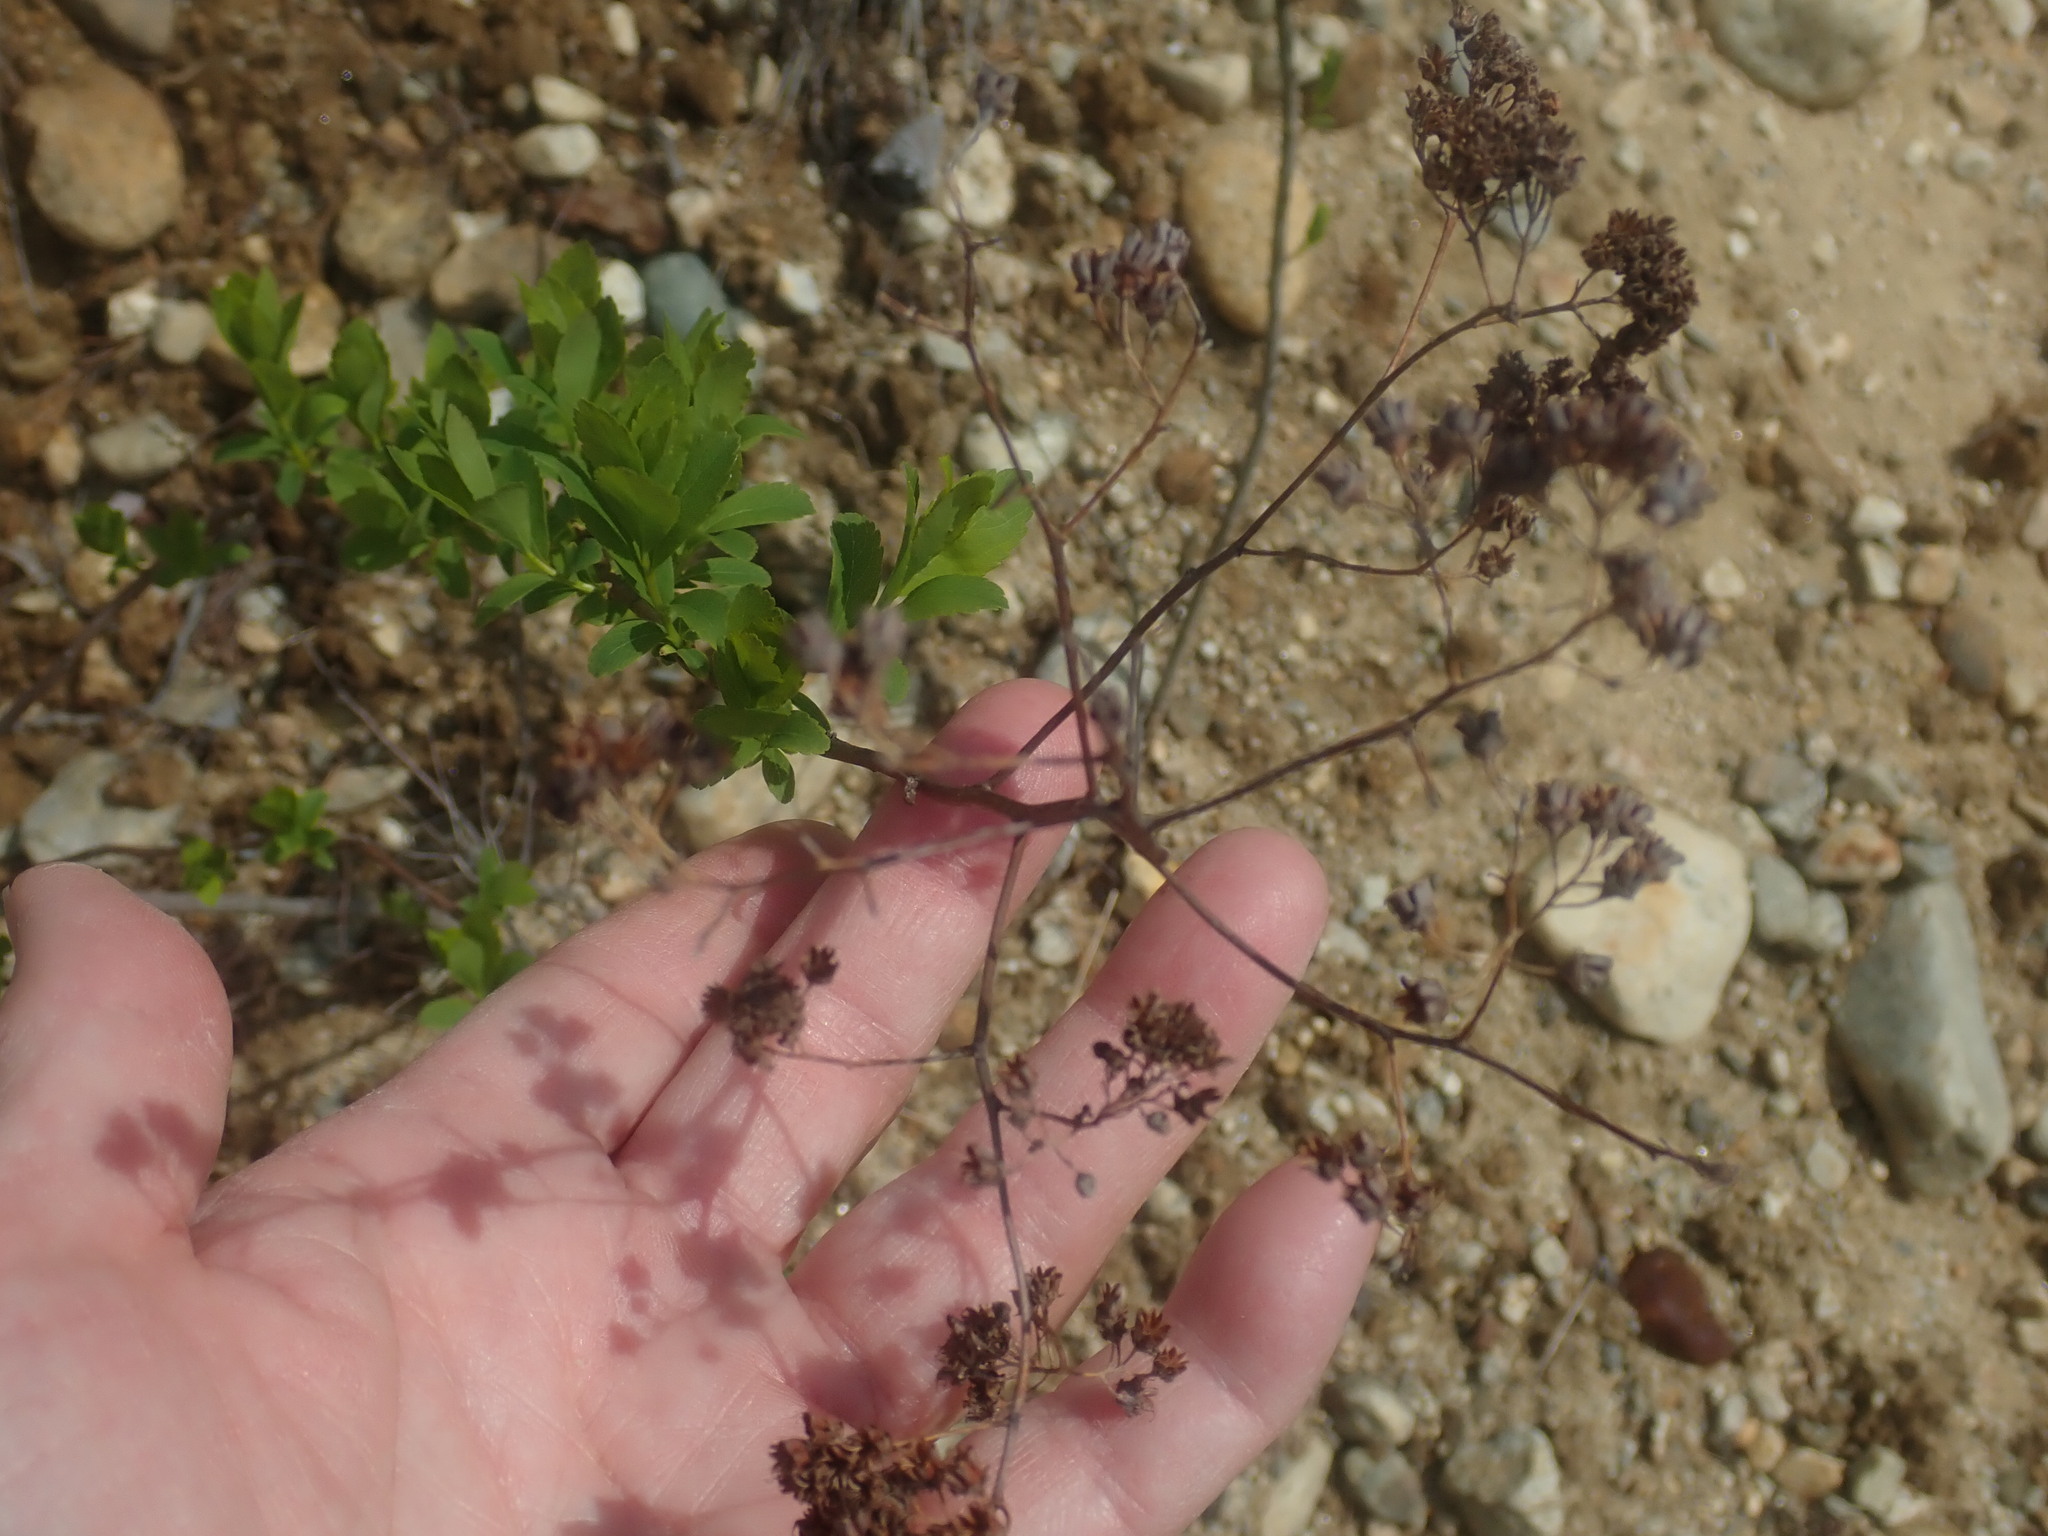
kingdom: Plantae
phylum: Tracheophyta
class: Magnoliopsida
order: Rosales
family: Rosaceae
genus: Spiraea
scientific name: Spiraea alba
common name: Pale bridewort
